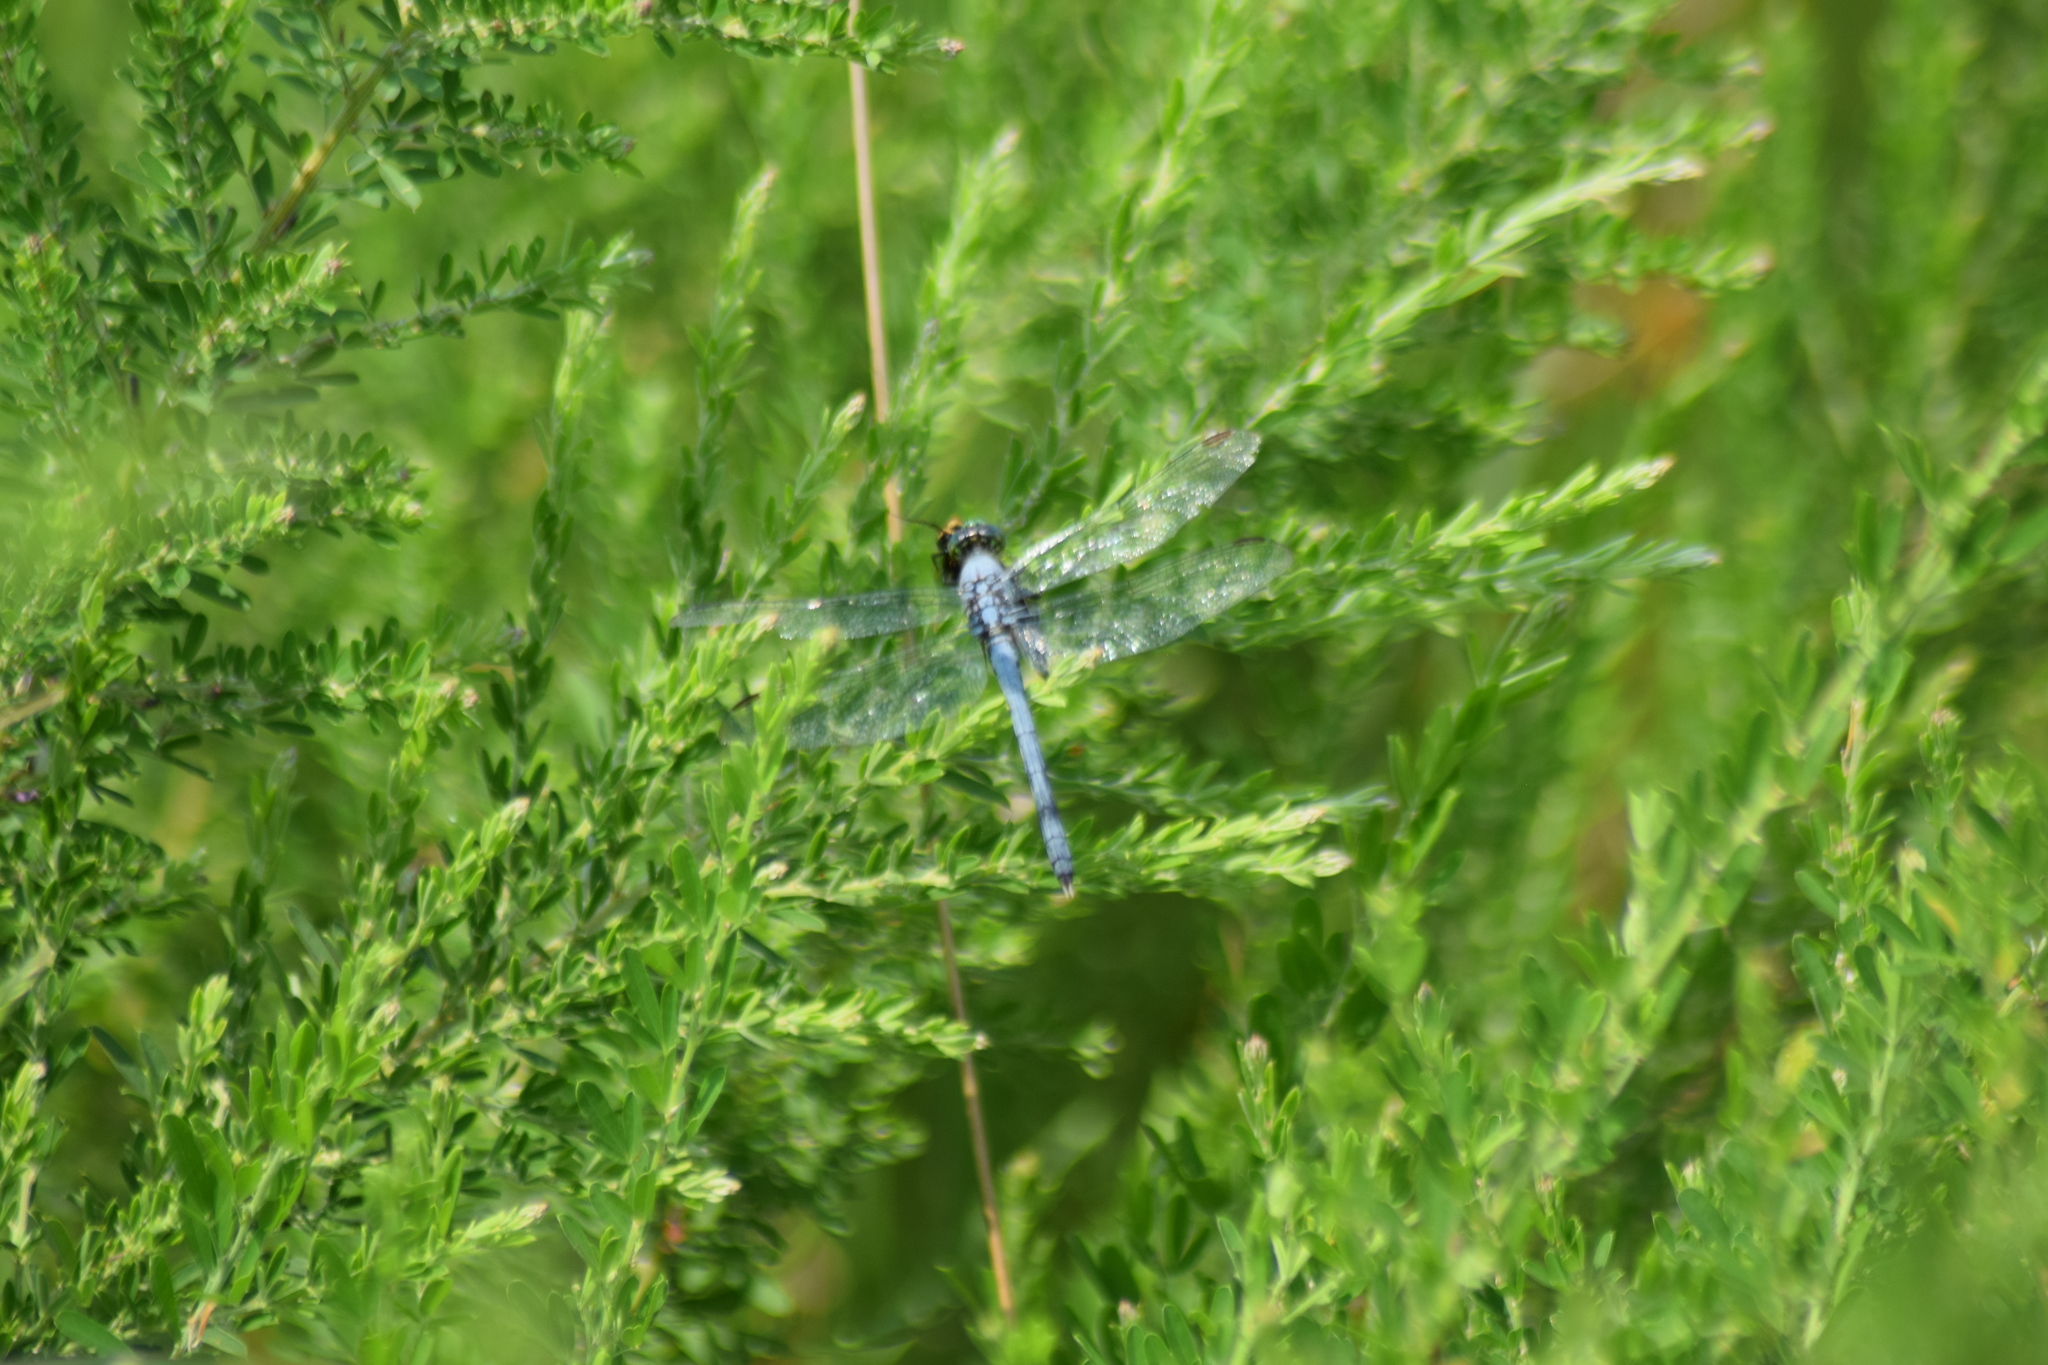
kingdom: Animalia
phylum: Arthropoda
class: Insecta
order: Odonata
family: Libellulidae
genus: Erythemis
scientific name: Erythemis simplicicollis
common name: Eastern pondhawk
